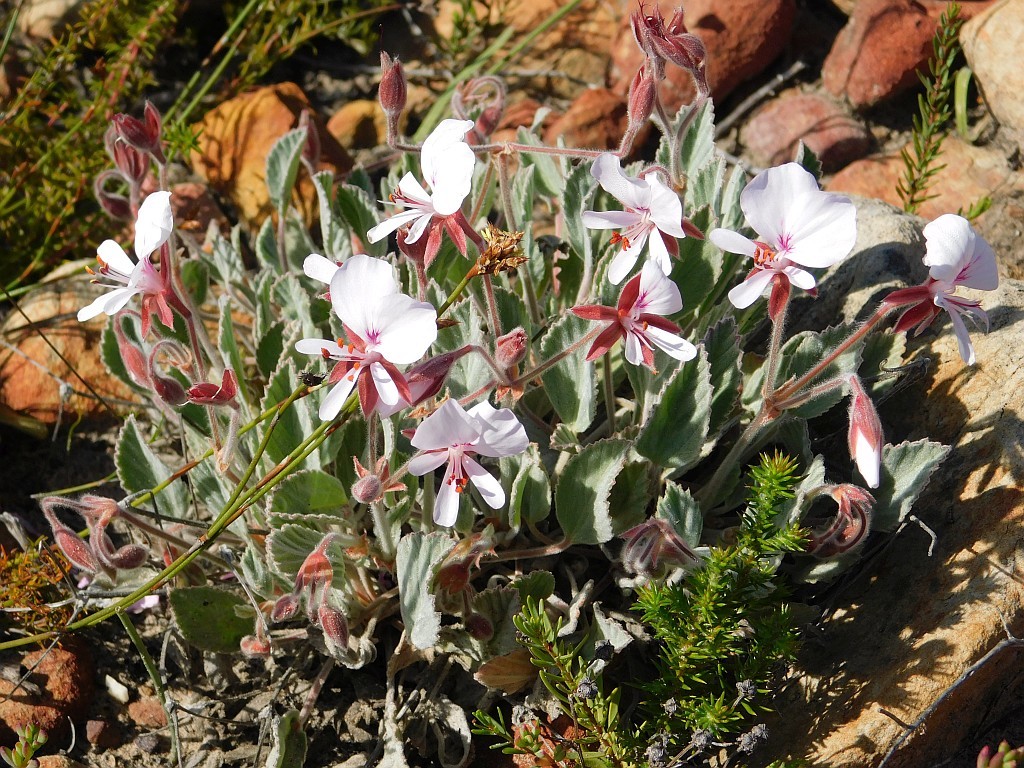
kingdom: Plantae
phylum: Tracheophyta
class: Magnoliopsida
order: Geraniales
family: Geraniaceae
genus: Pelargonium
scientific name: Pelargonium ovale
